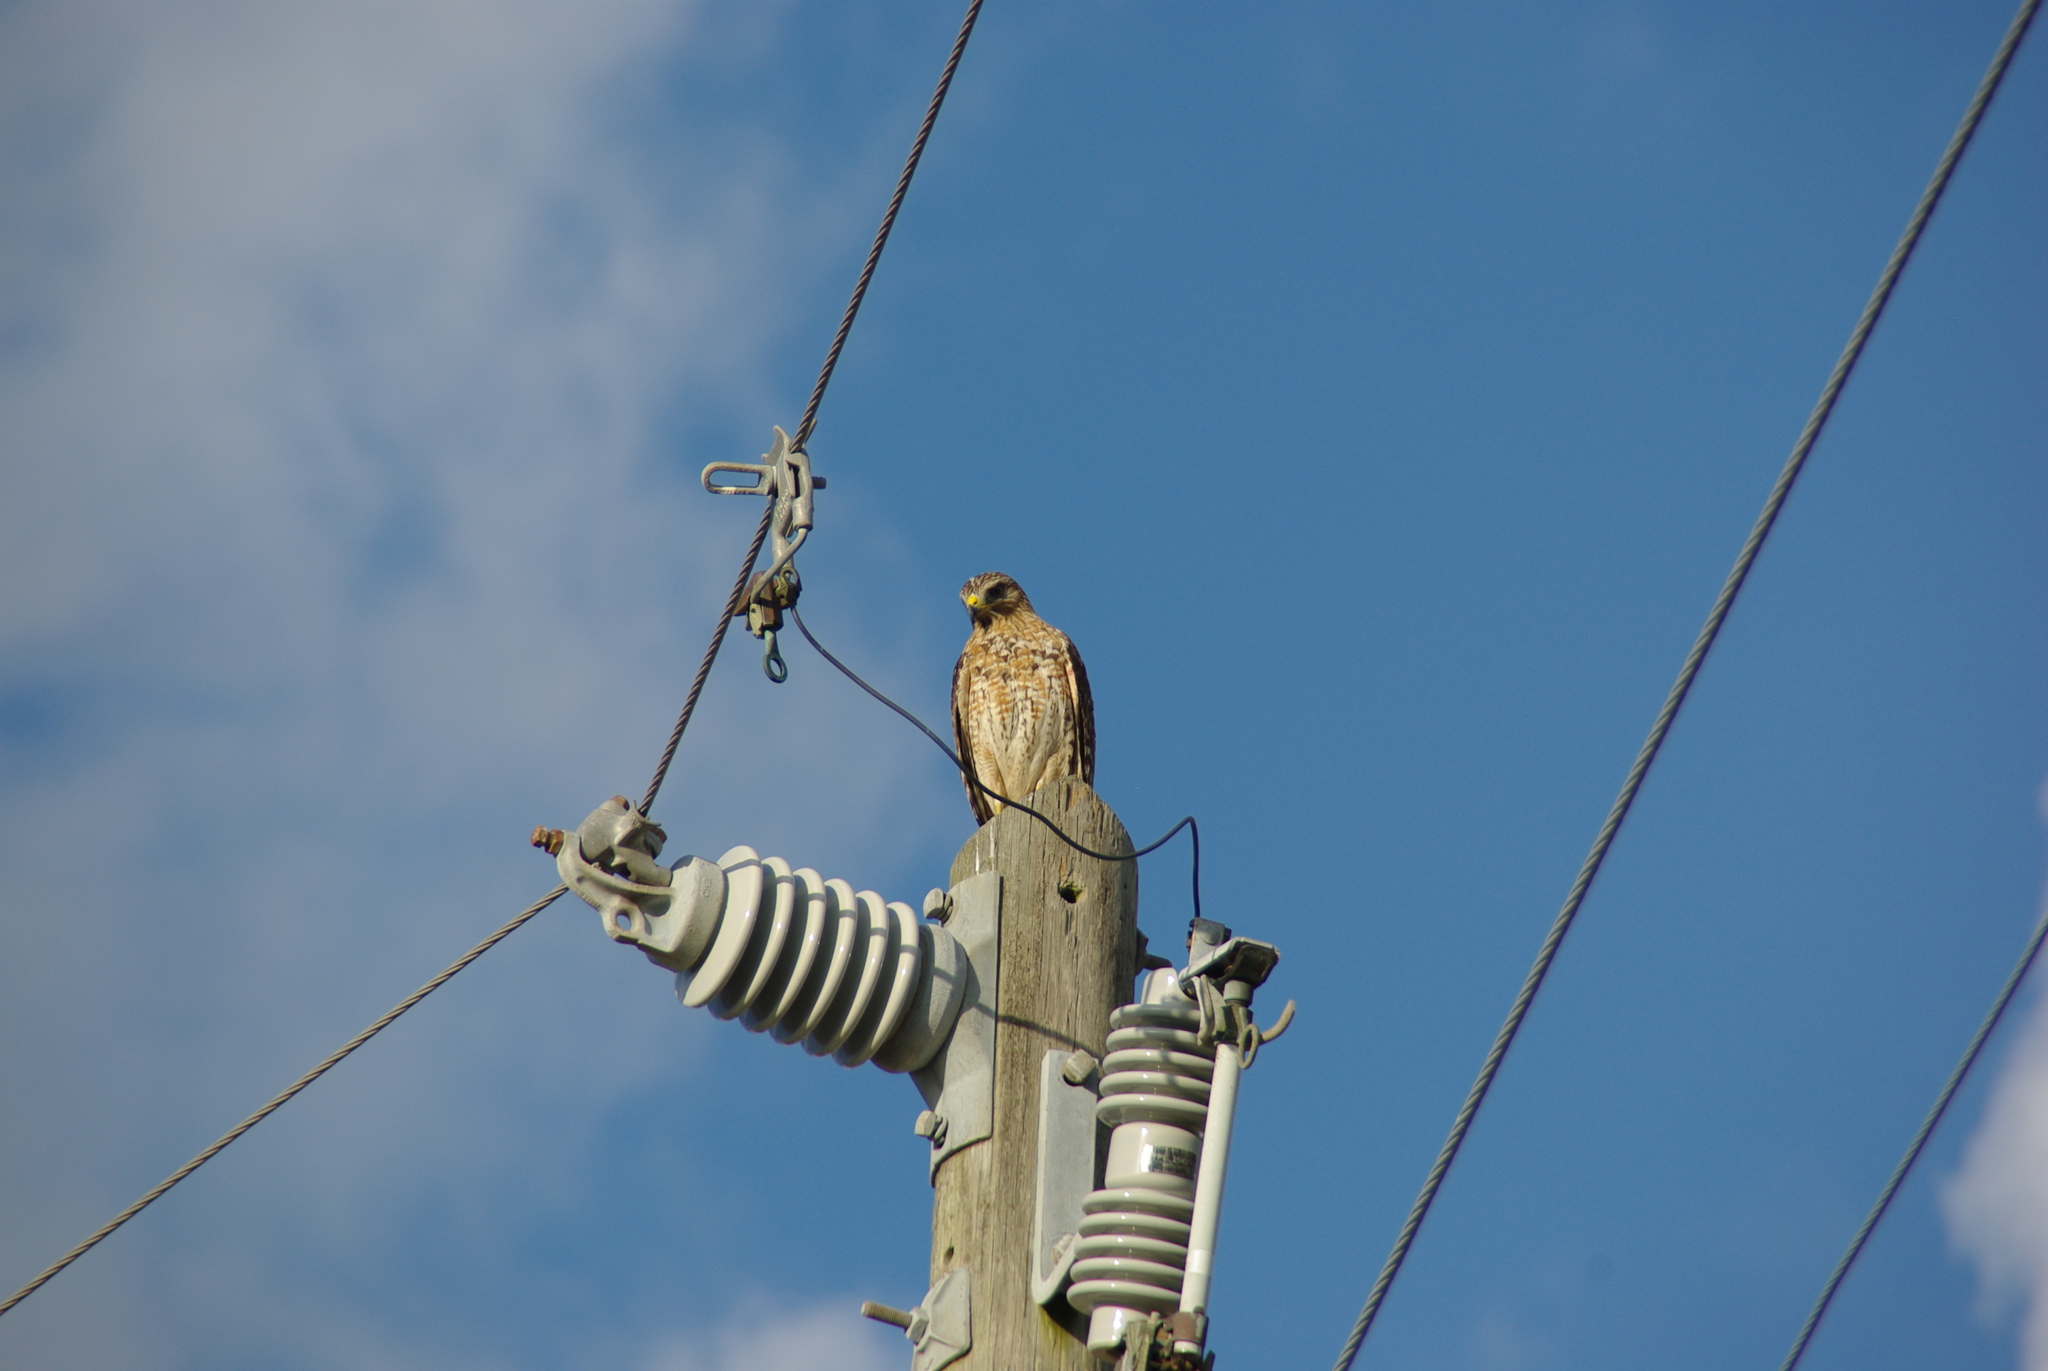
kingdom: Animalia
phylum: Chordata
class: Aves
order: Accipitriformes
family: Accipitridae
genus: Buteo
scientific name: Buteo lineatus
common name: Red-shouldered hawk
